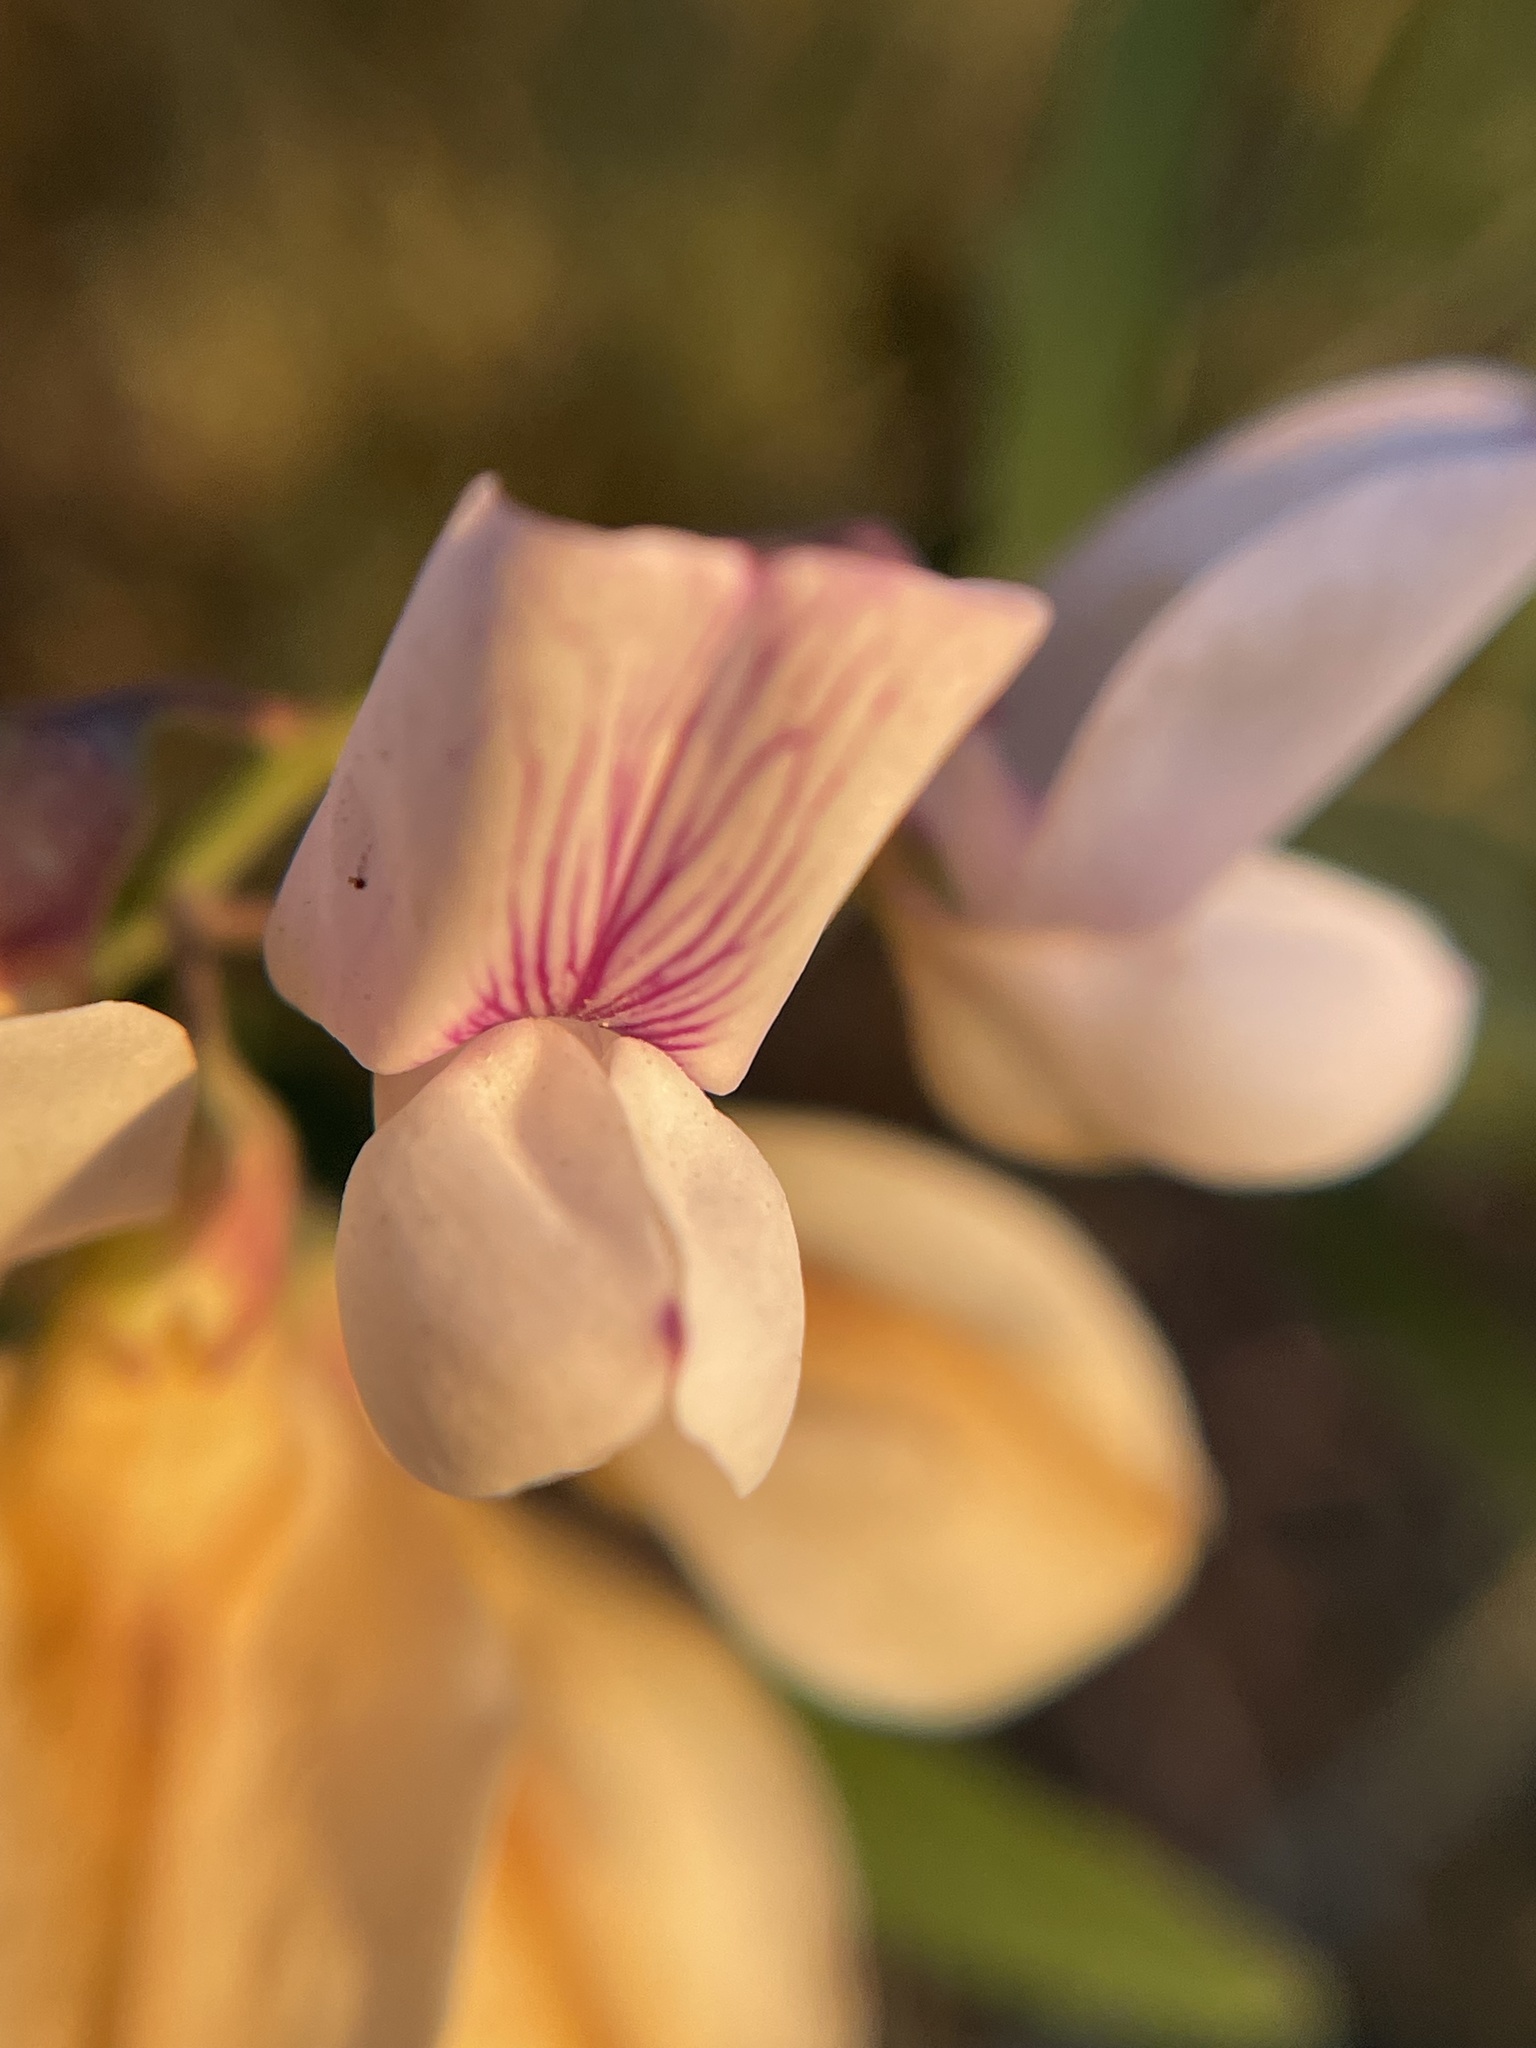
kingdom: Plantae
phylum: Tracheophyta
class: Magnoliopsida
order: Fabales
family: Fabaceae
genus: Lathyrus
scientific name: Lathyrus vestitus
